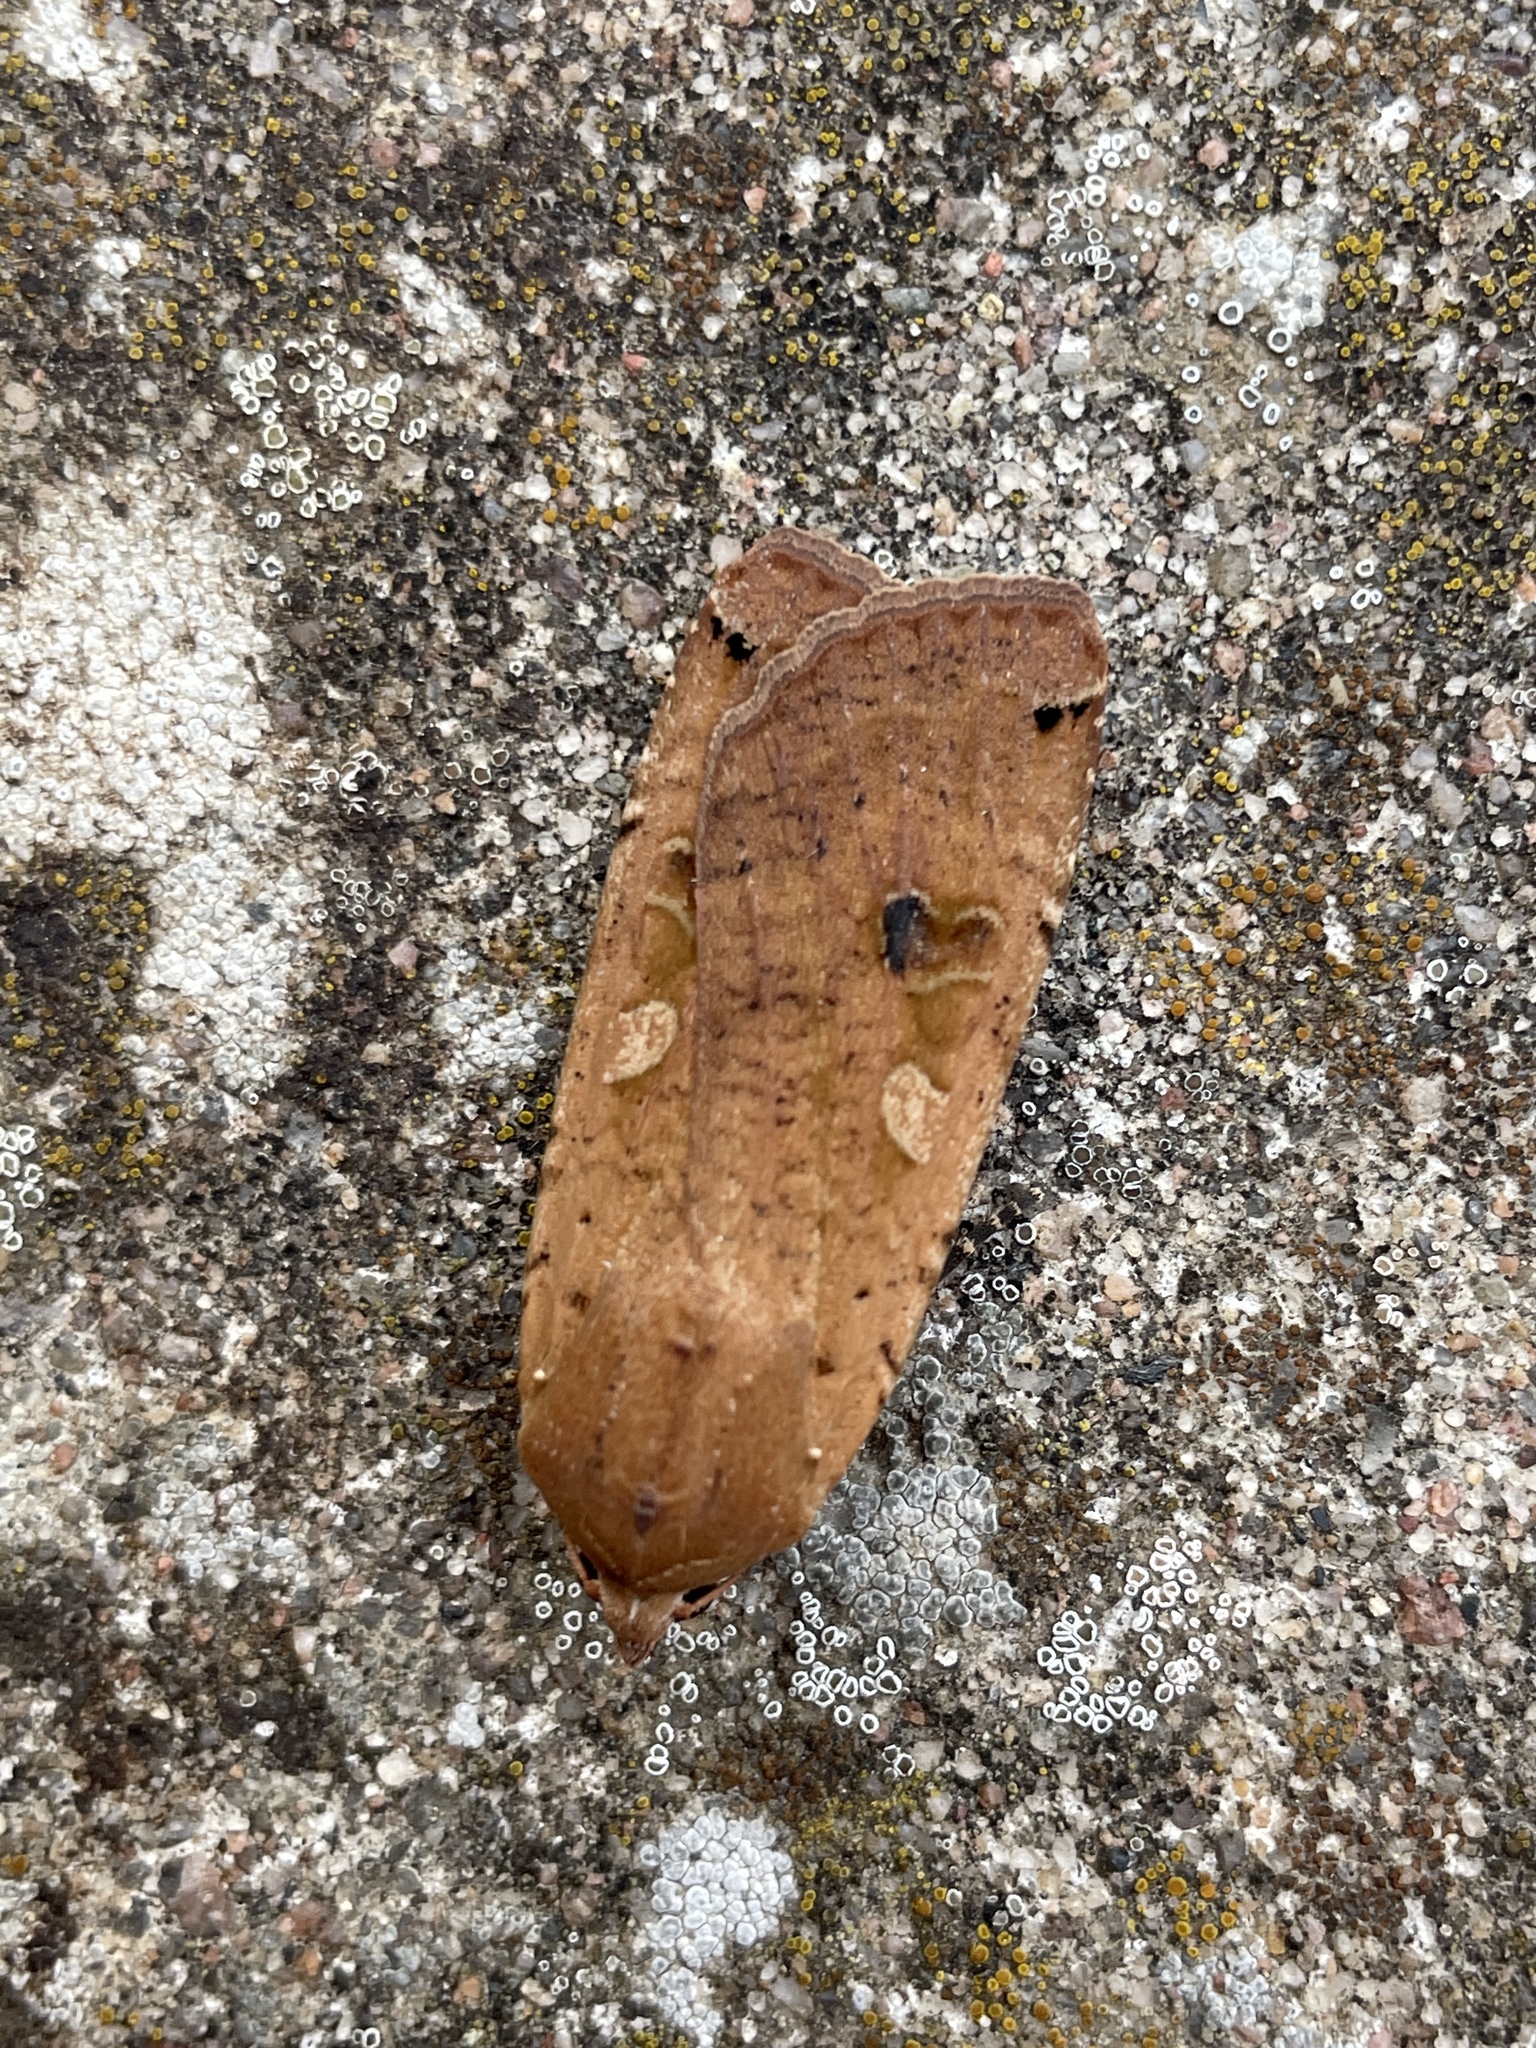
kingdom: Animalia
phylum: Arthropoda
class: Insecta
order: Lepidoptera
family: Noctuidae
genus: Noctua
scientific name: Noctua pronuba
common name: Large yellow underwing
